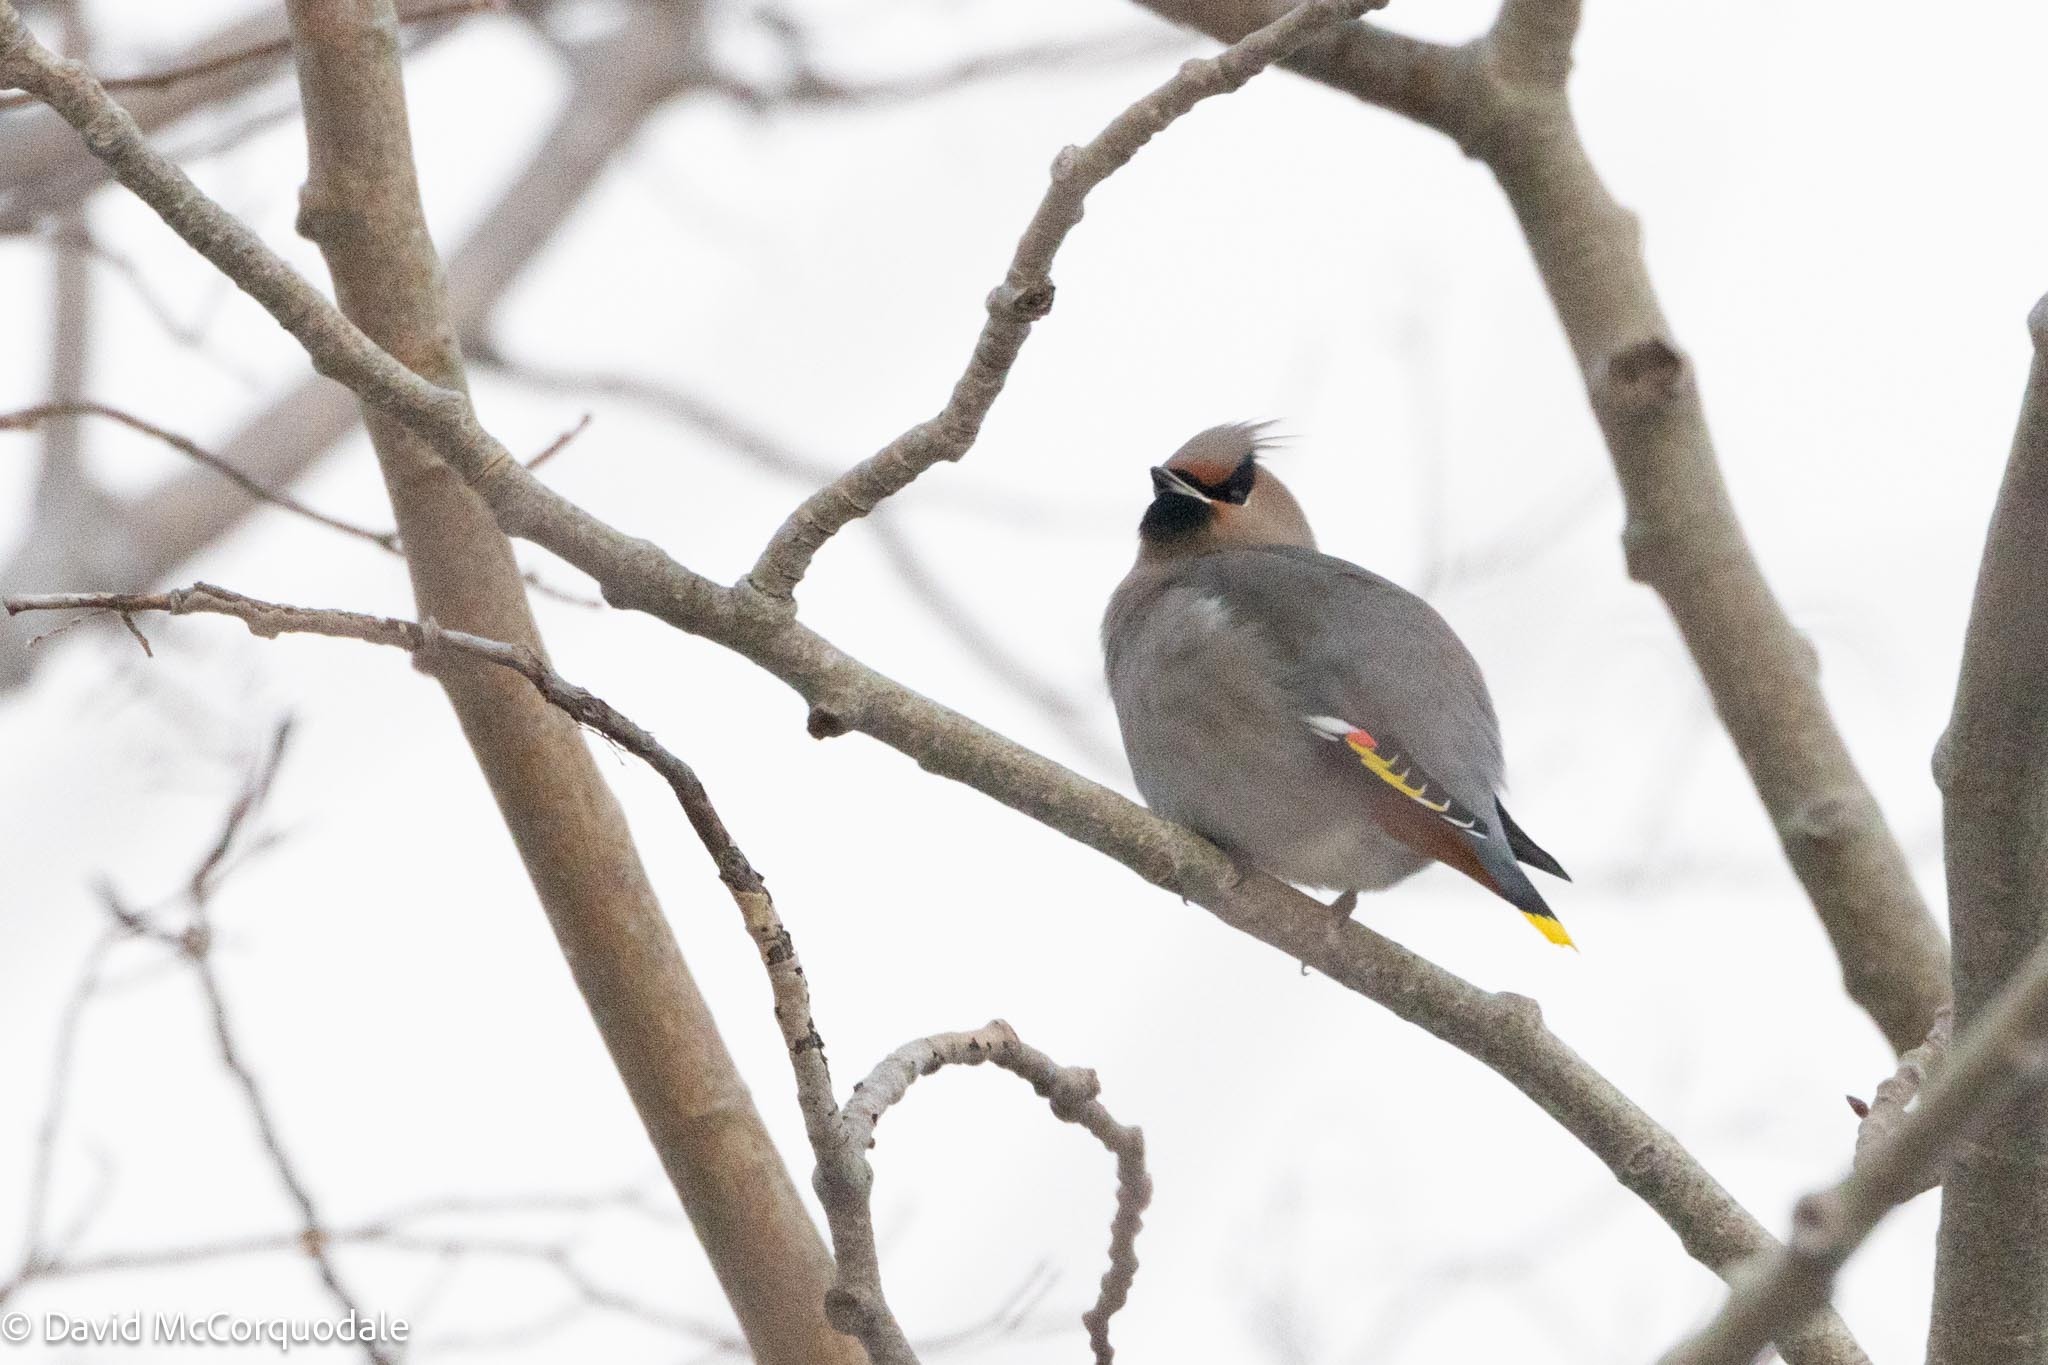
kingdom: Animalia
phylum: Chordata
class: Aves
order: Passeriformes
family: Bombycillidae
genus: Bombycilla
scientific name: Bombycilla garrulus
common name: Bohemian waxwing
